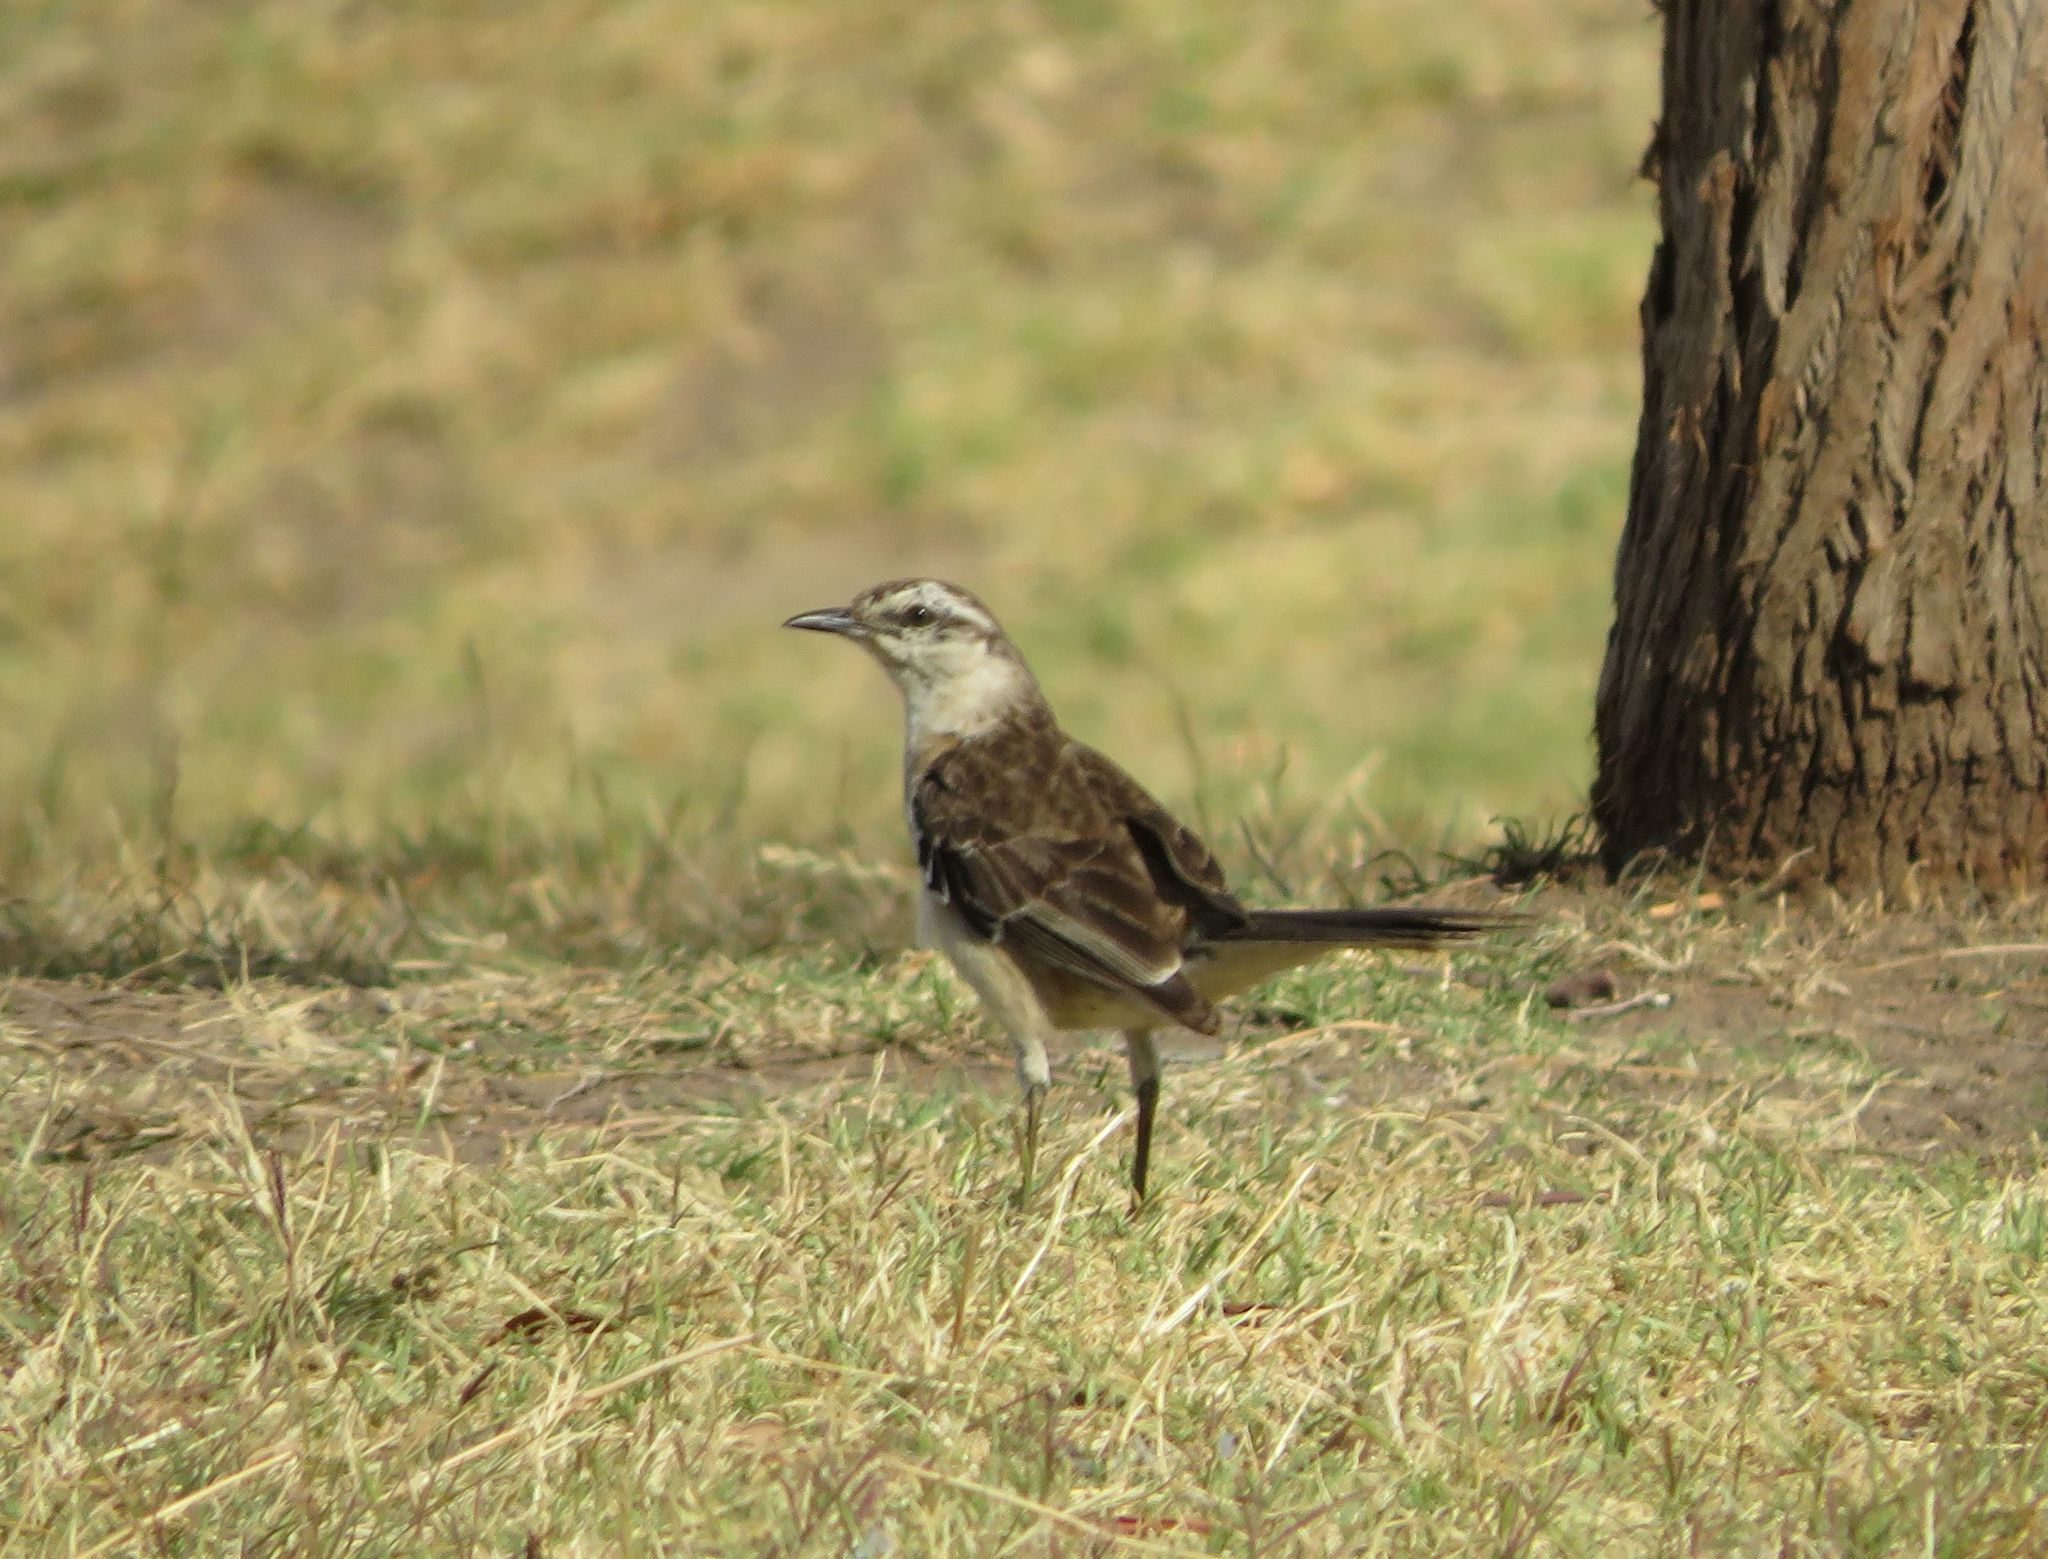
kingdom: Animalia
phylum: Chordata
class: Aves
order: Passeriformes
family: Mimidae
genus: Mimus
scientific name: Mimus saturninus
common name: Chalk-browed mockingbird
